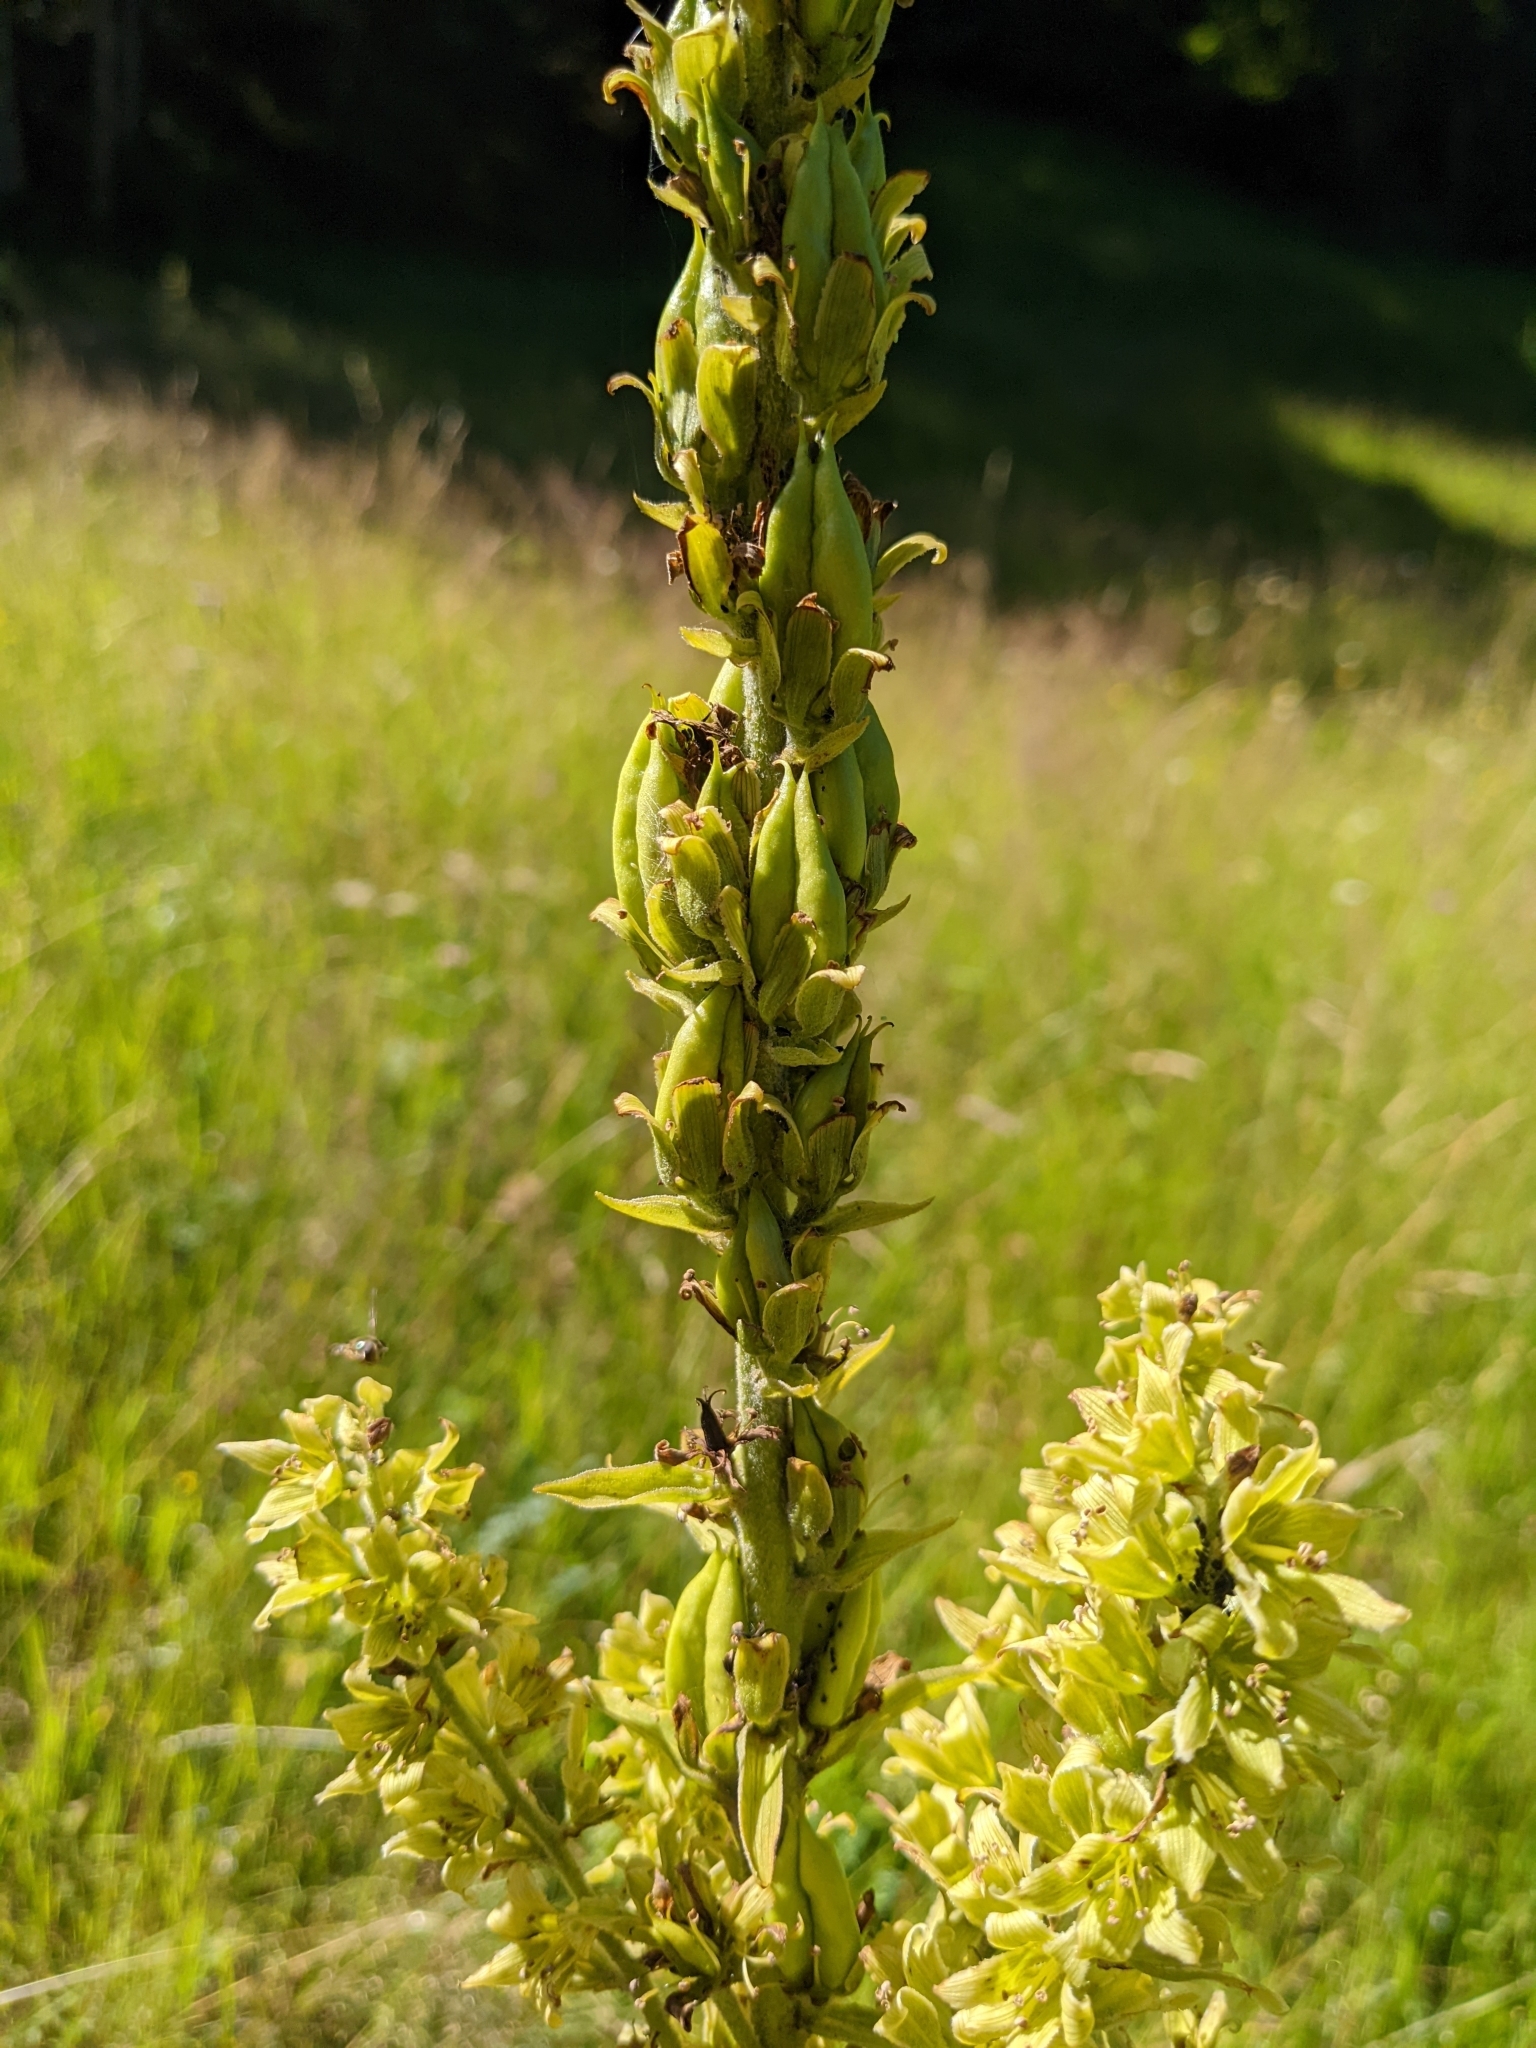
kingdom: Plantae
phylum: Tracheophyta
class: Liliopsida
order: Liliales
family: Melanthiaceae
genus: Veratrum
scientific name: Veratrum lobelianum
